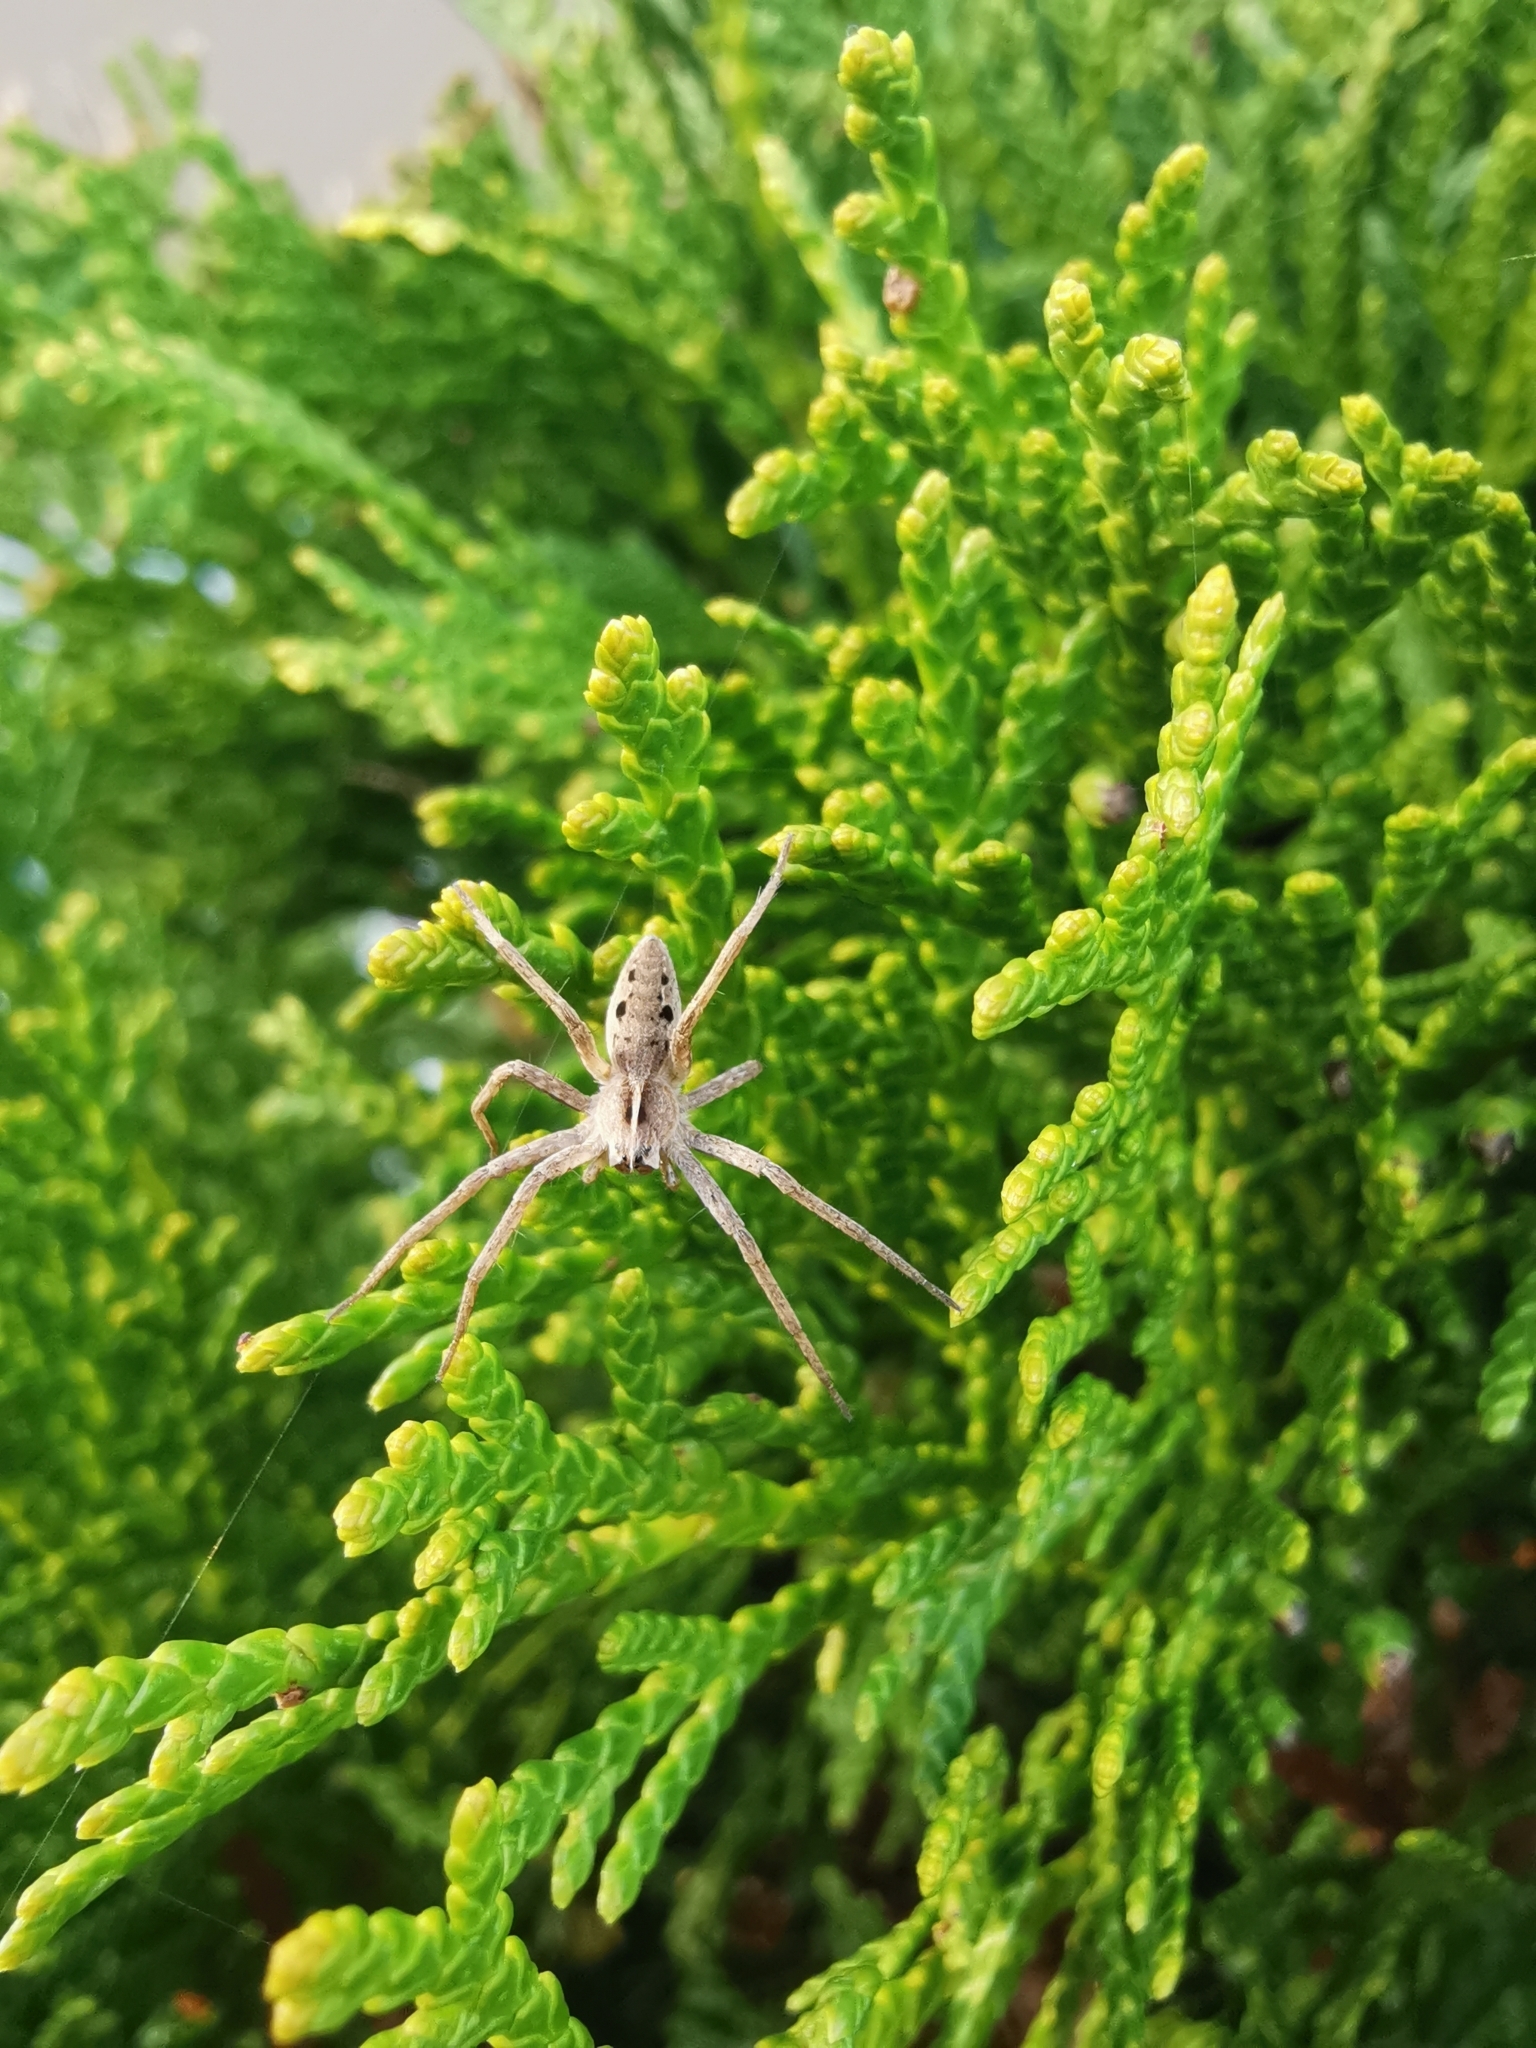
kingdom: Animalia
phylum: Arthropoda
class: Arachnida
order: Araneae
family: Pisauridae
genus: Pisaura
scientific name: Pisaura mirabilis
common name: Tent spider
